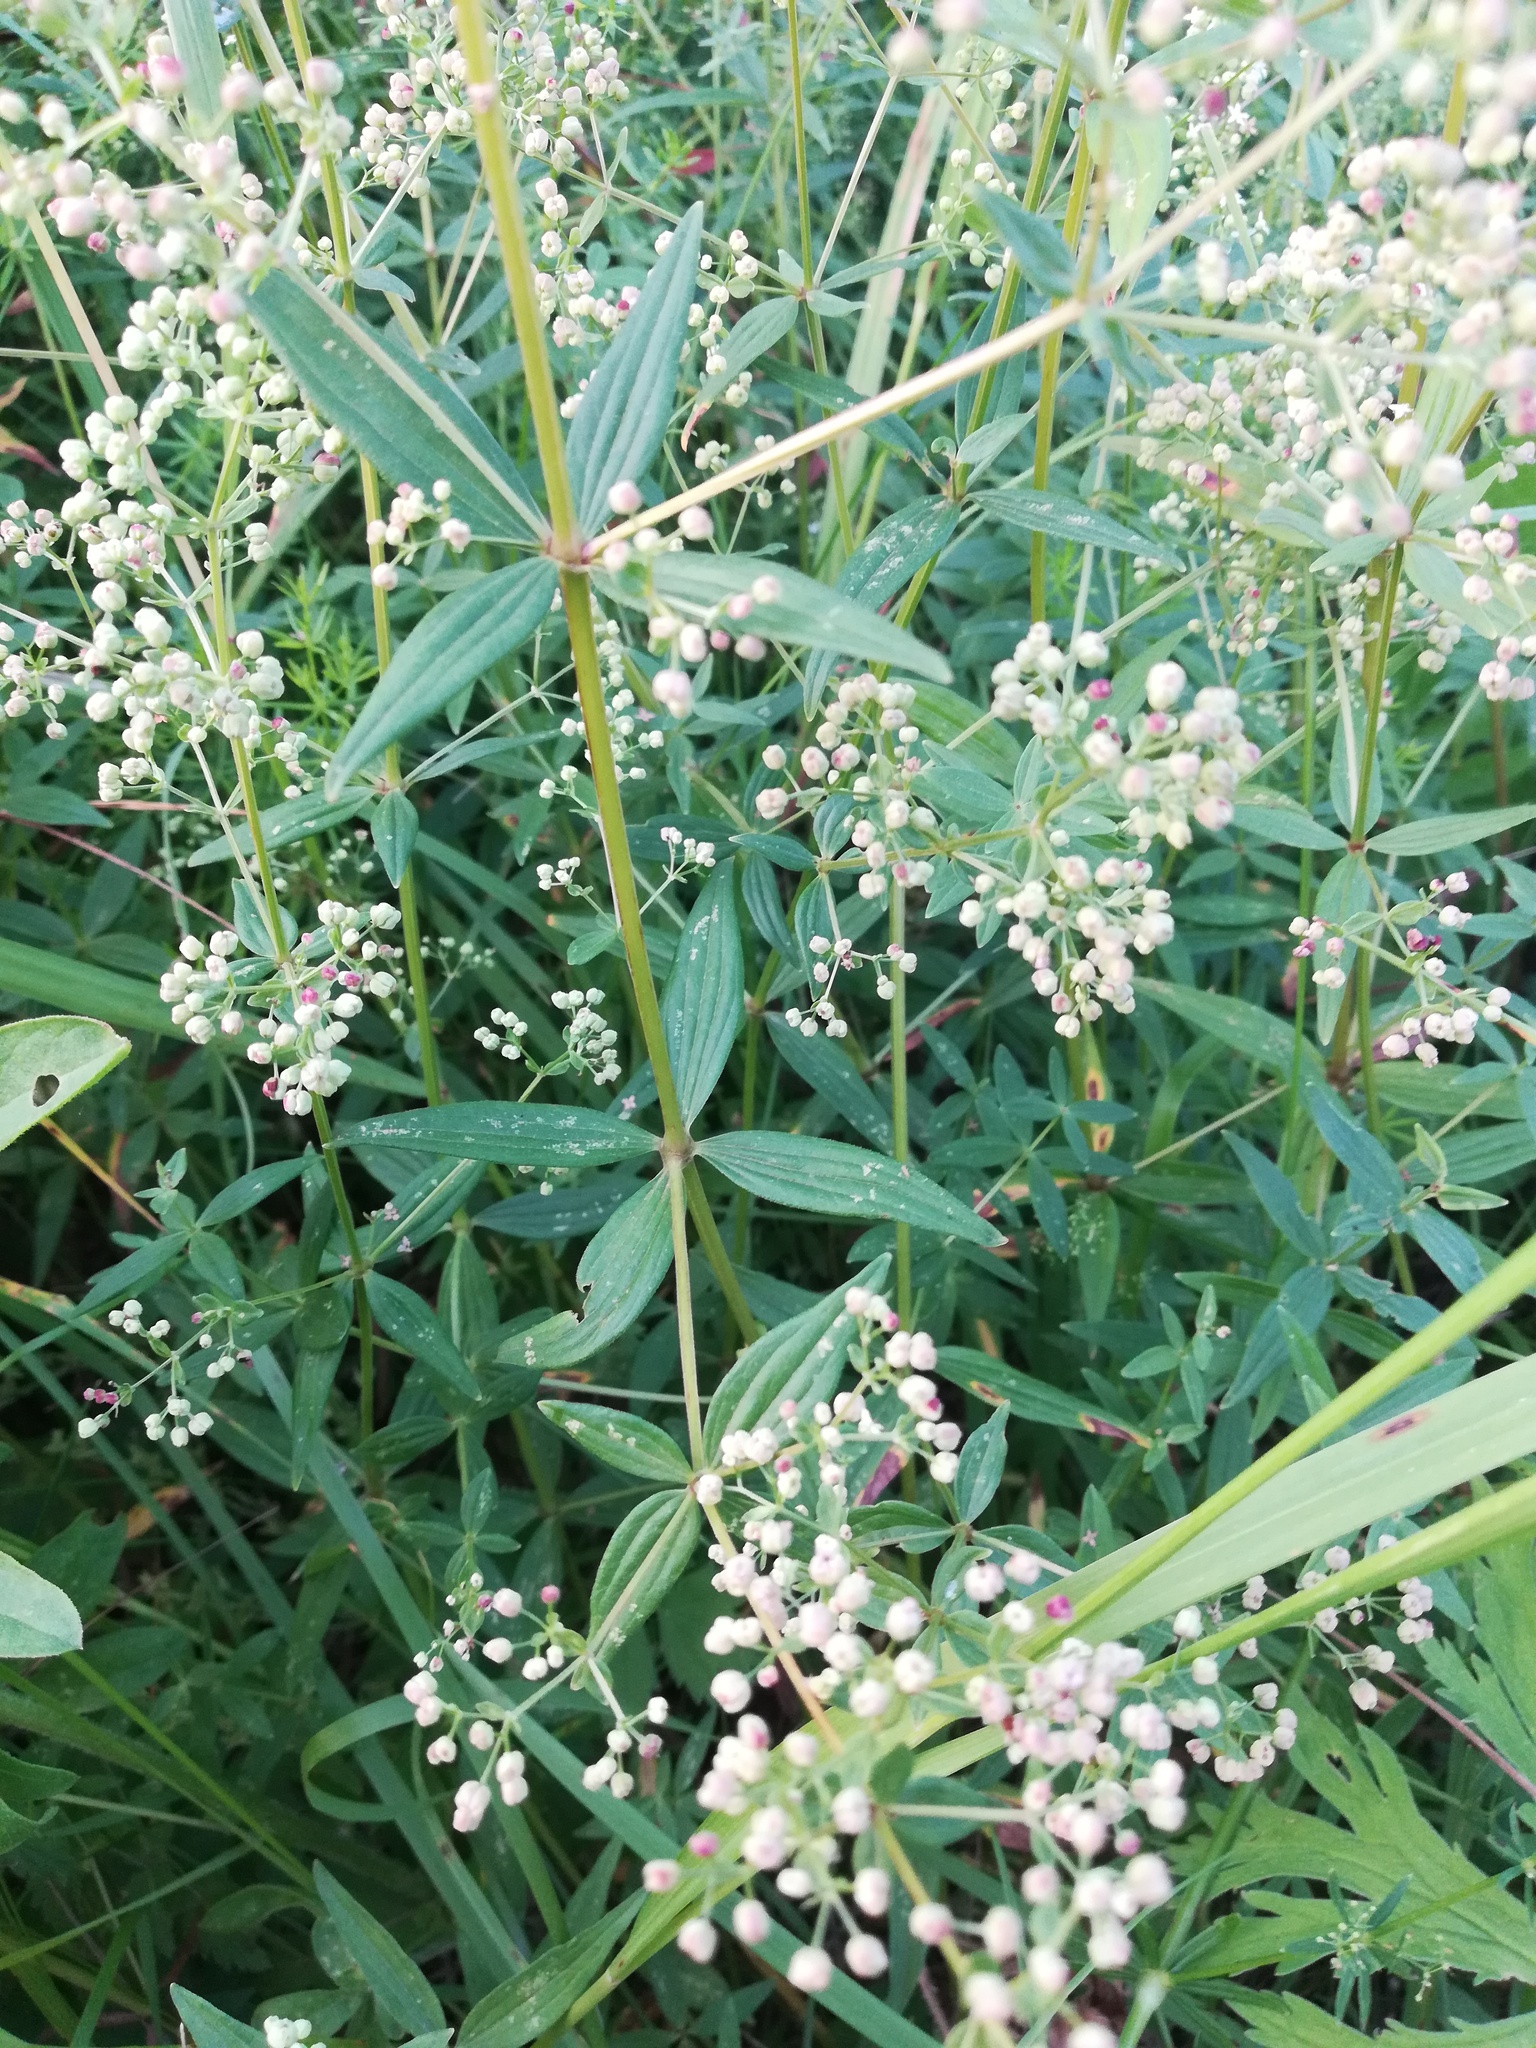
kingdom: Plantae
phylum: Tracheophyta
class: Magnoliopsida
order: Gentianales
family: Rubiaceae
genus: Galium
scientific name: Galium boreale
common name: Northern bedstraw
